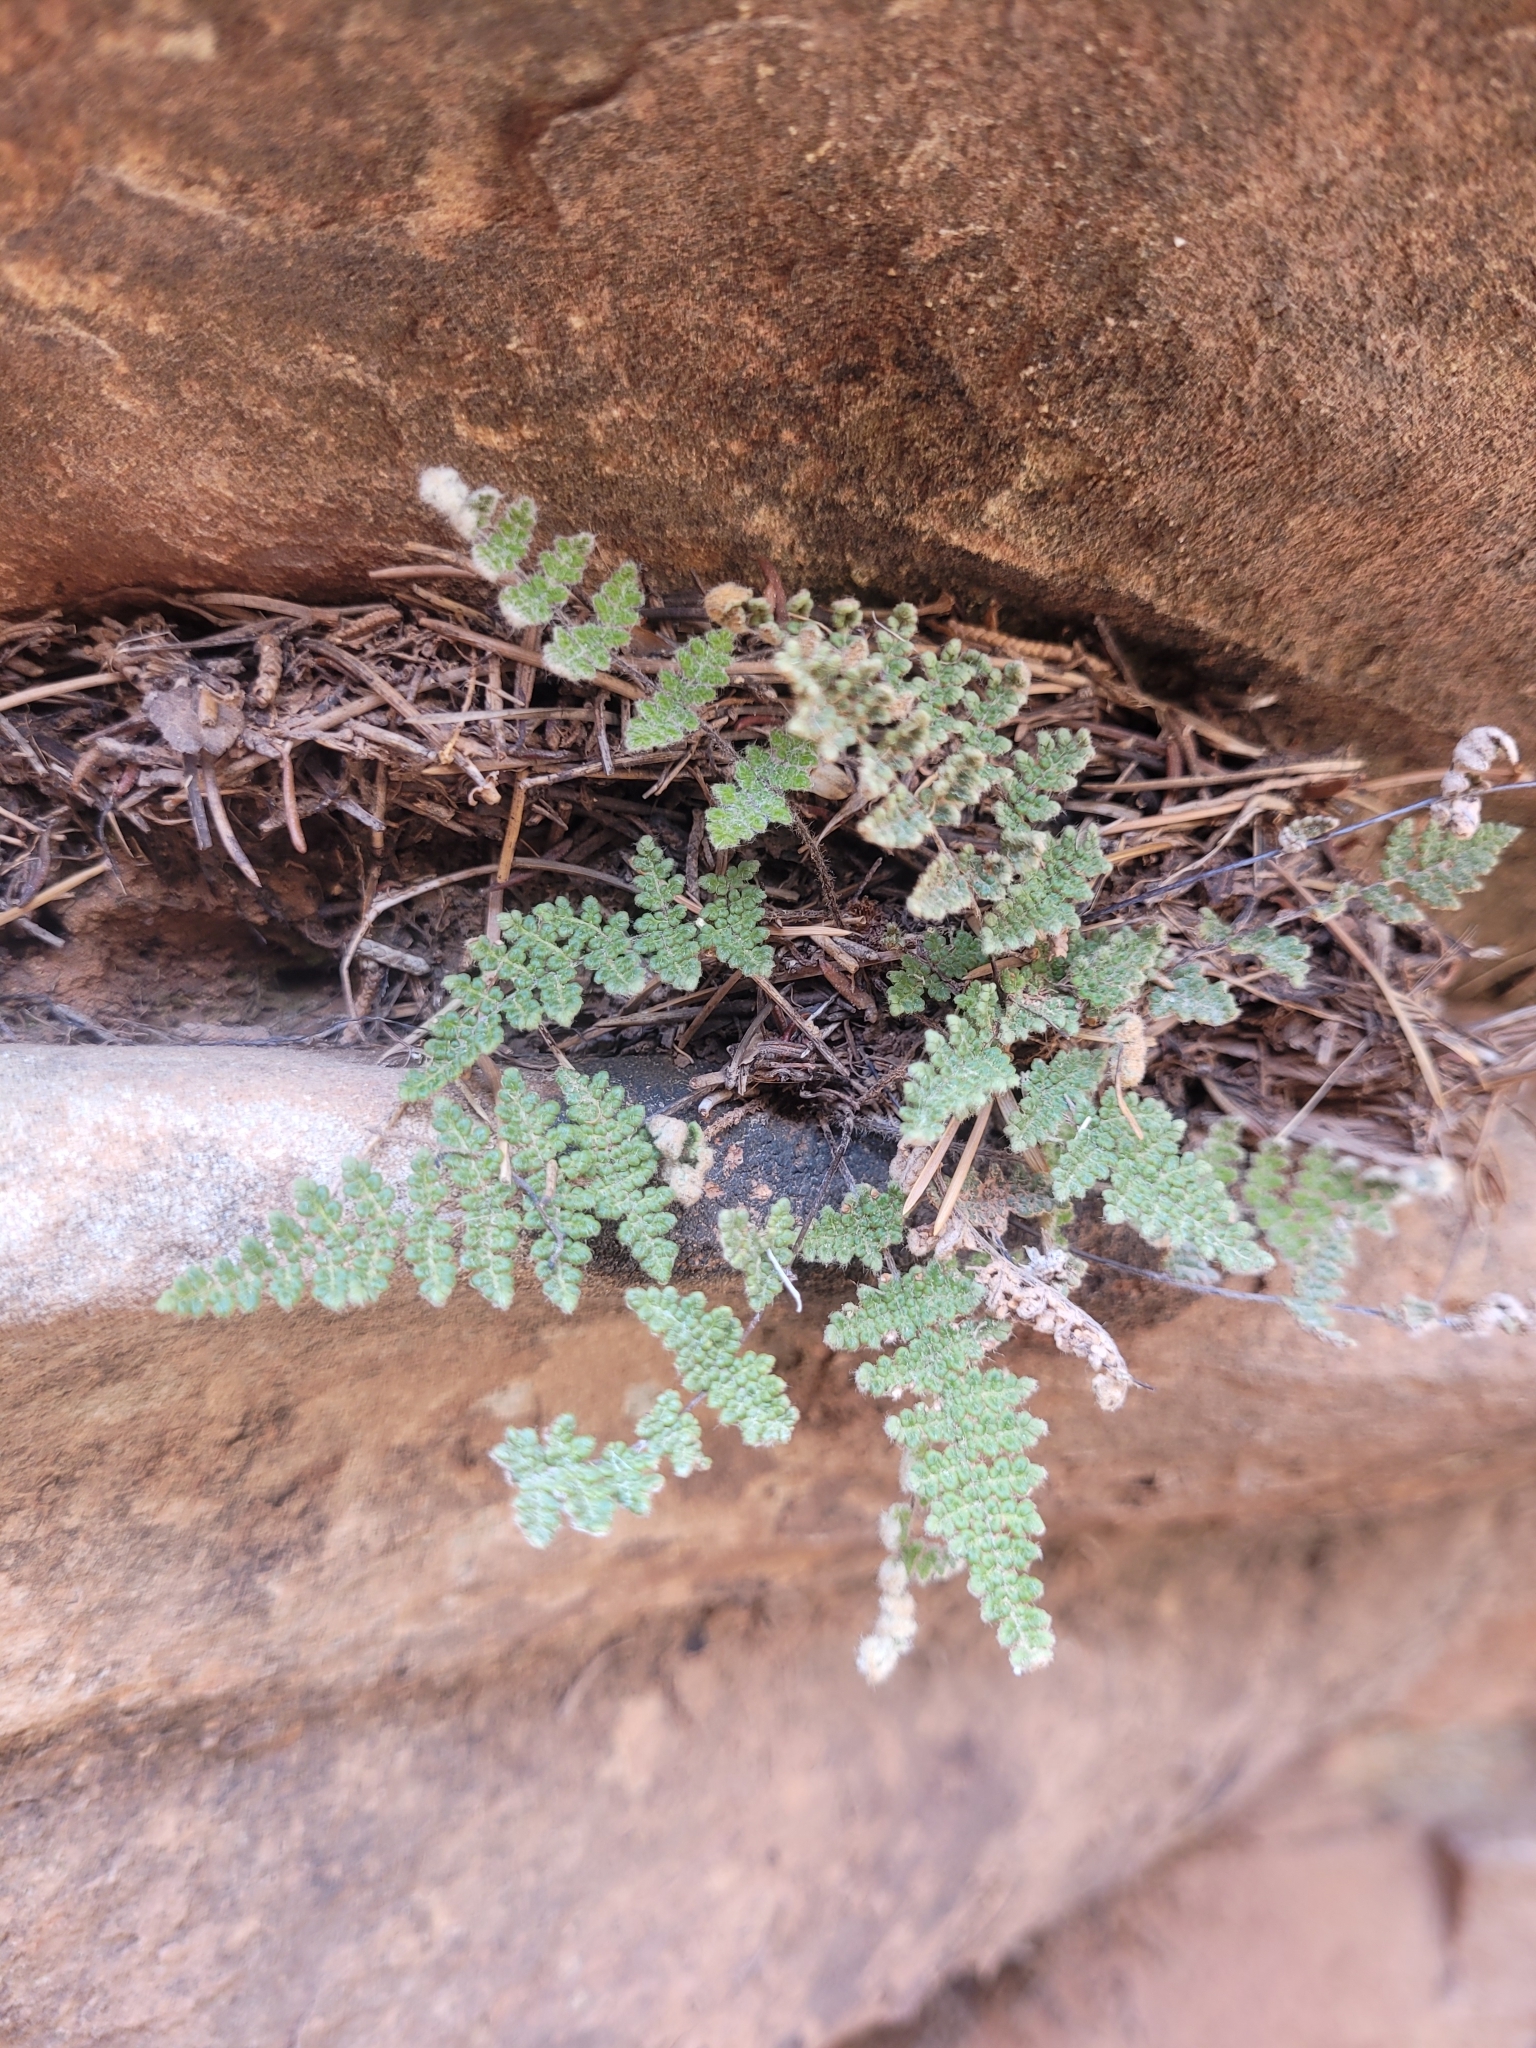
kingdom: Plantae
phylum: Tracheophyta
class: Polypodiopsida
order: Polypodiales
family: Pteridaceae
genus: Myriopteris
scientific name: Myriopteris gracilis
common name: Fee's lip fern
